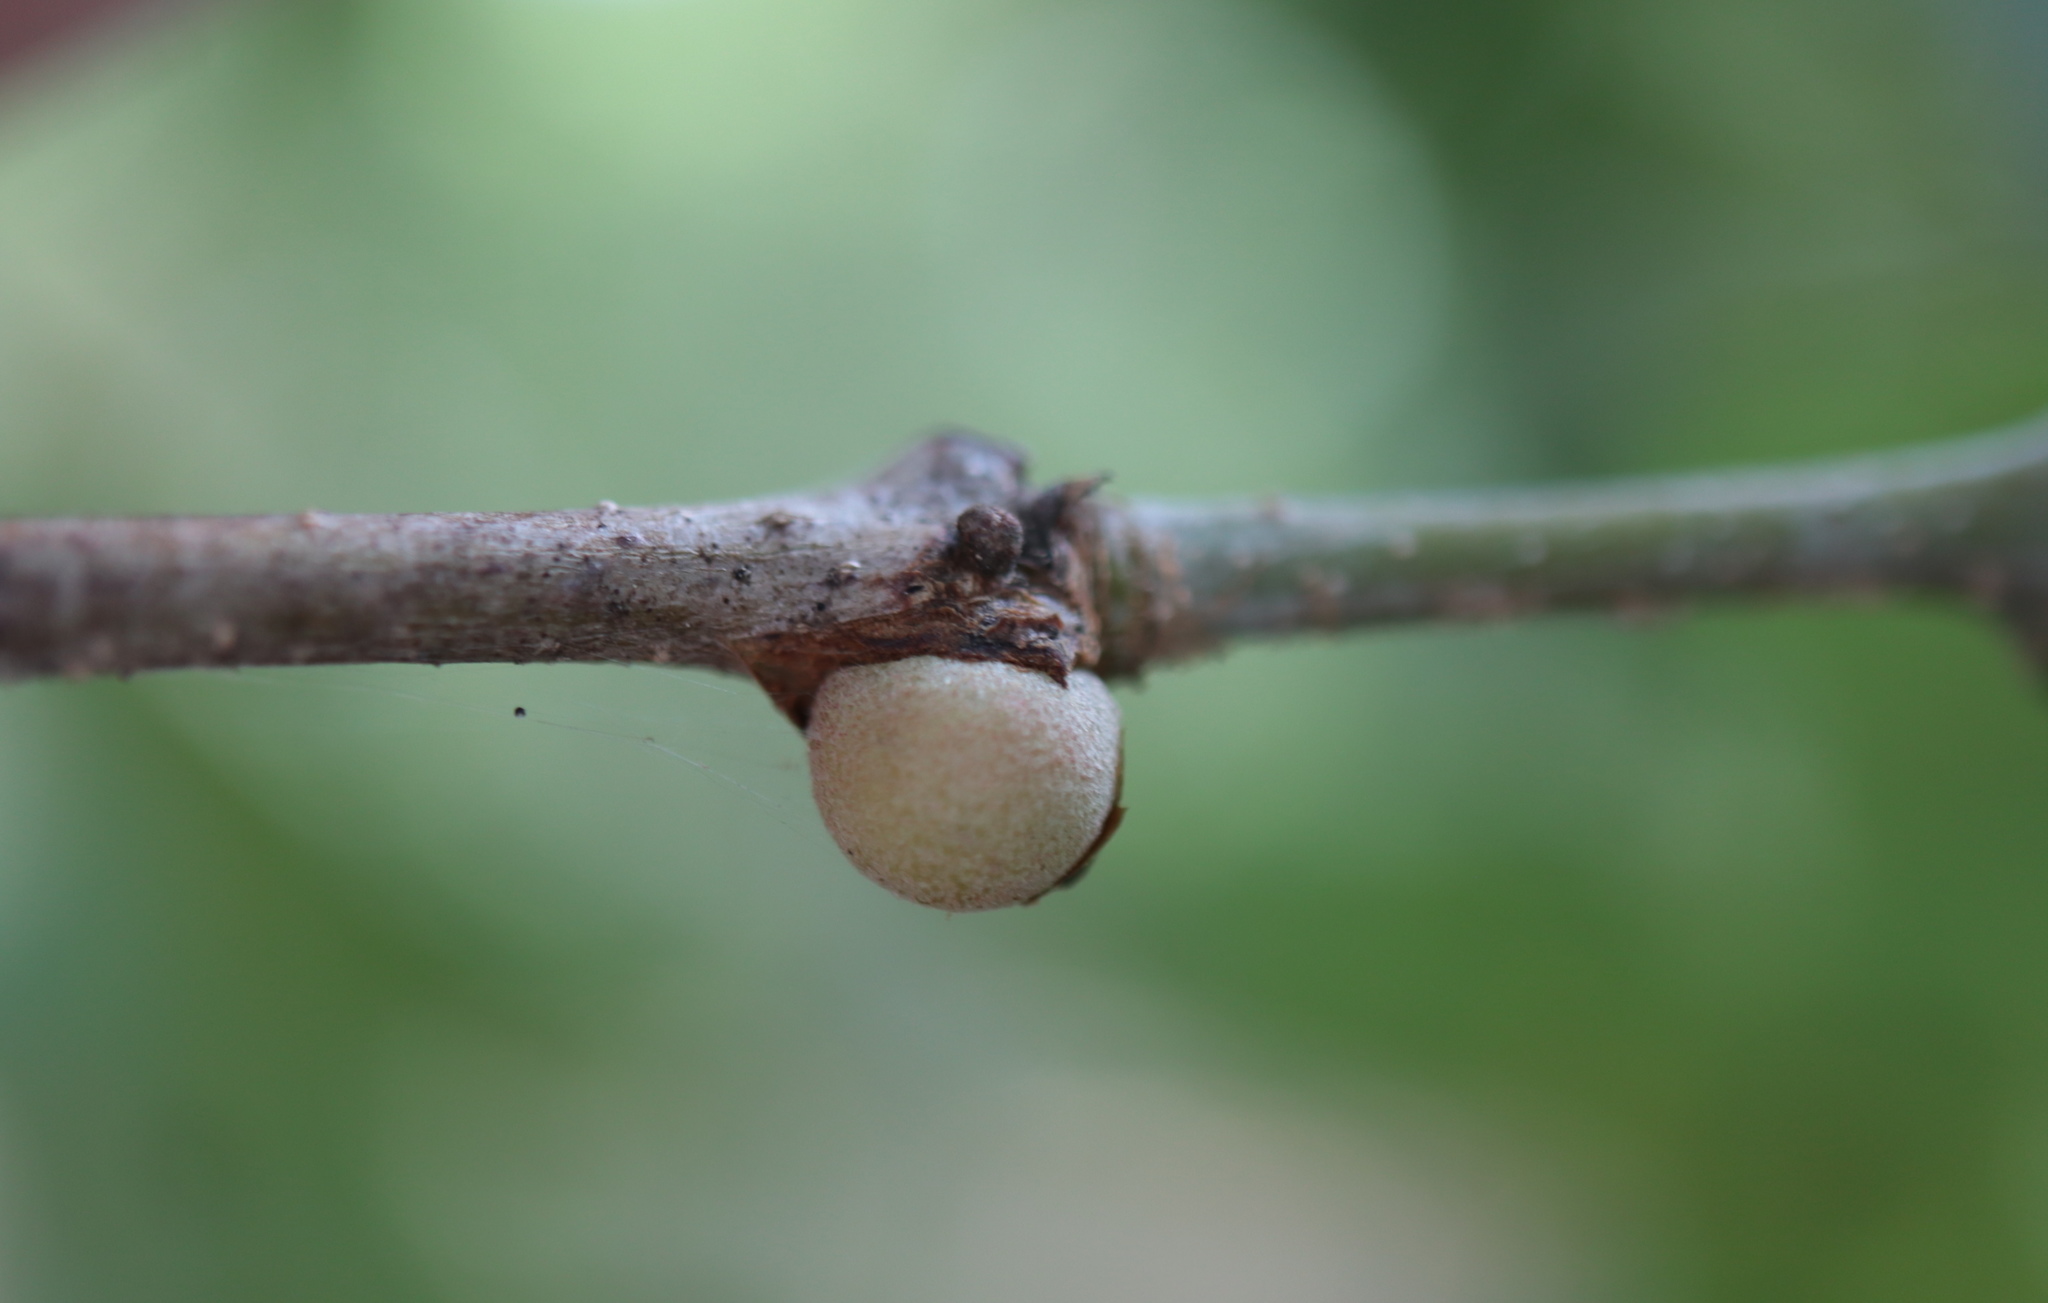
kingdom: Animalia
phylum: Arthropoda
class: Insecta
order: Hymenoptera
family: Cynipidae
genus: Disholcaspis
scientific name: Disholcaspis quercusglobulus
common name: Round bullet gall wasp
